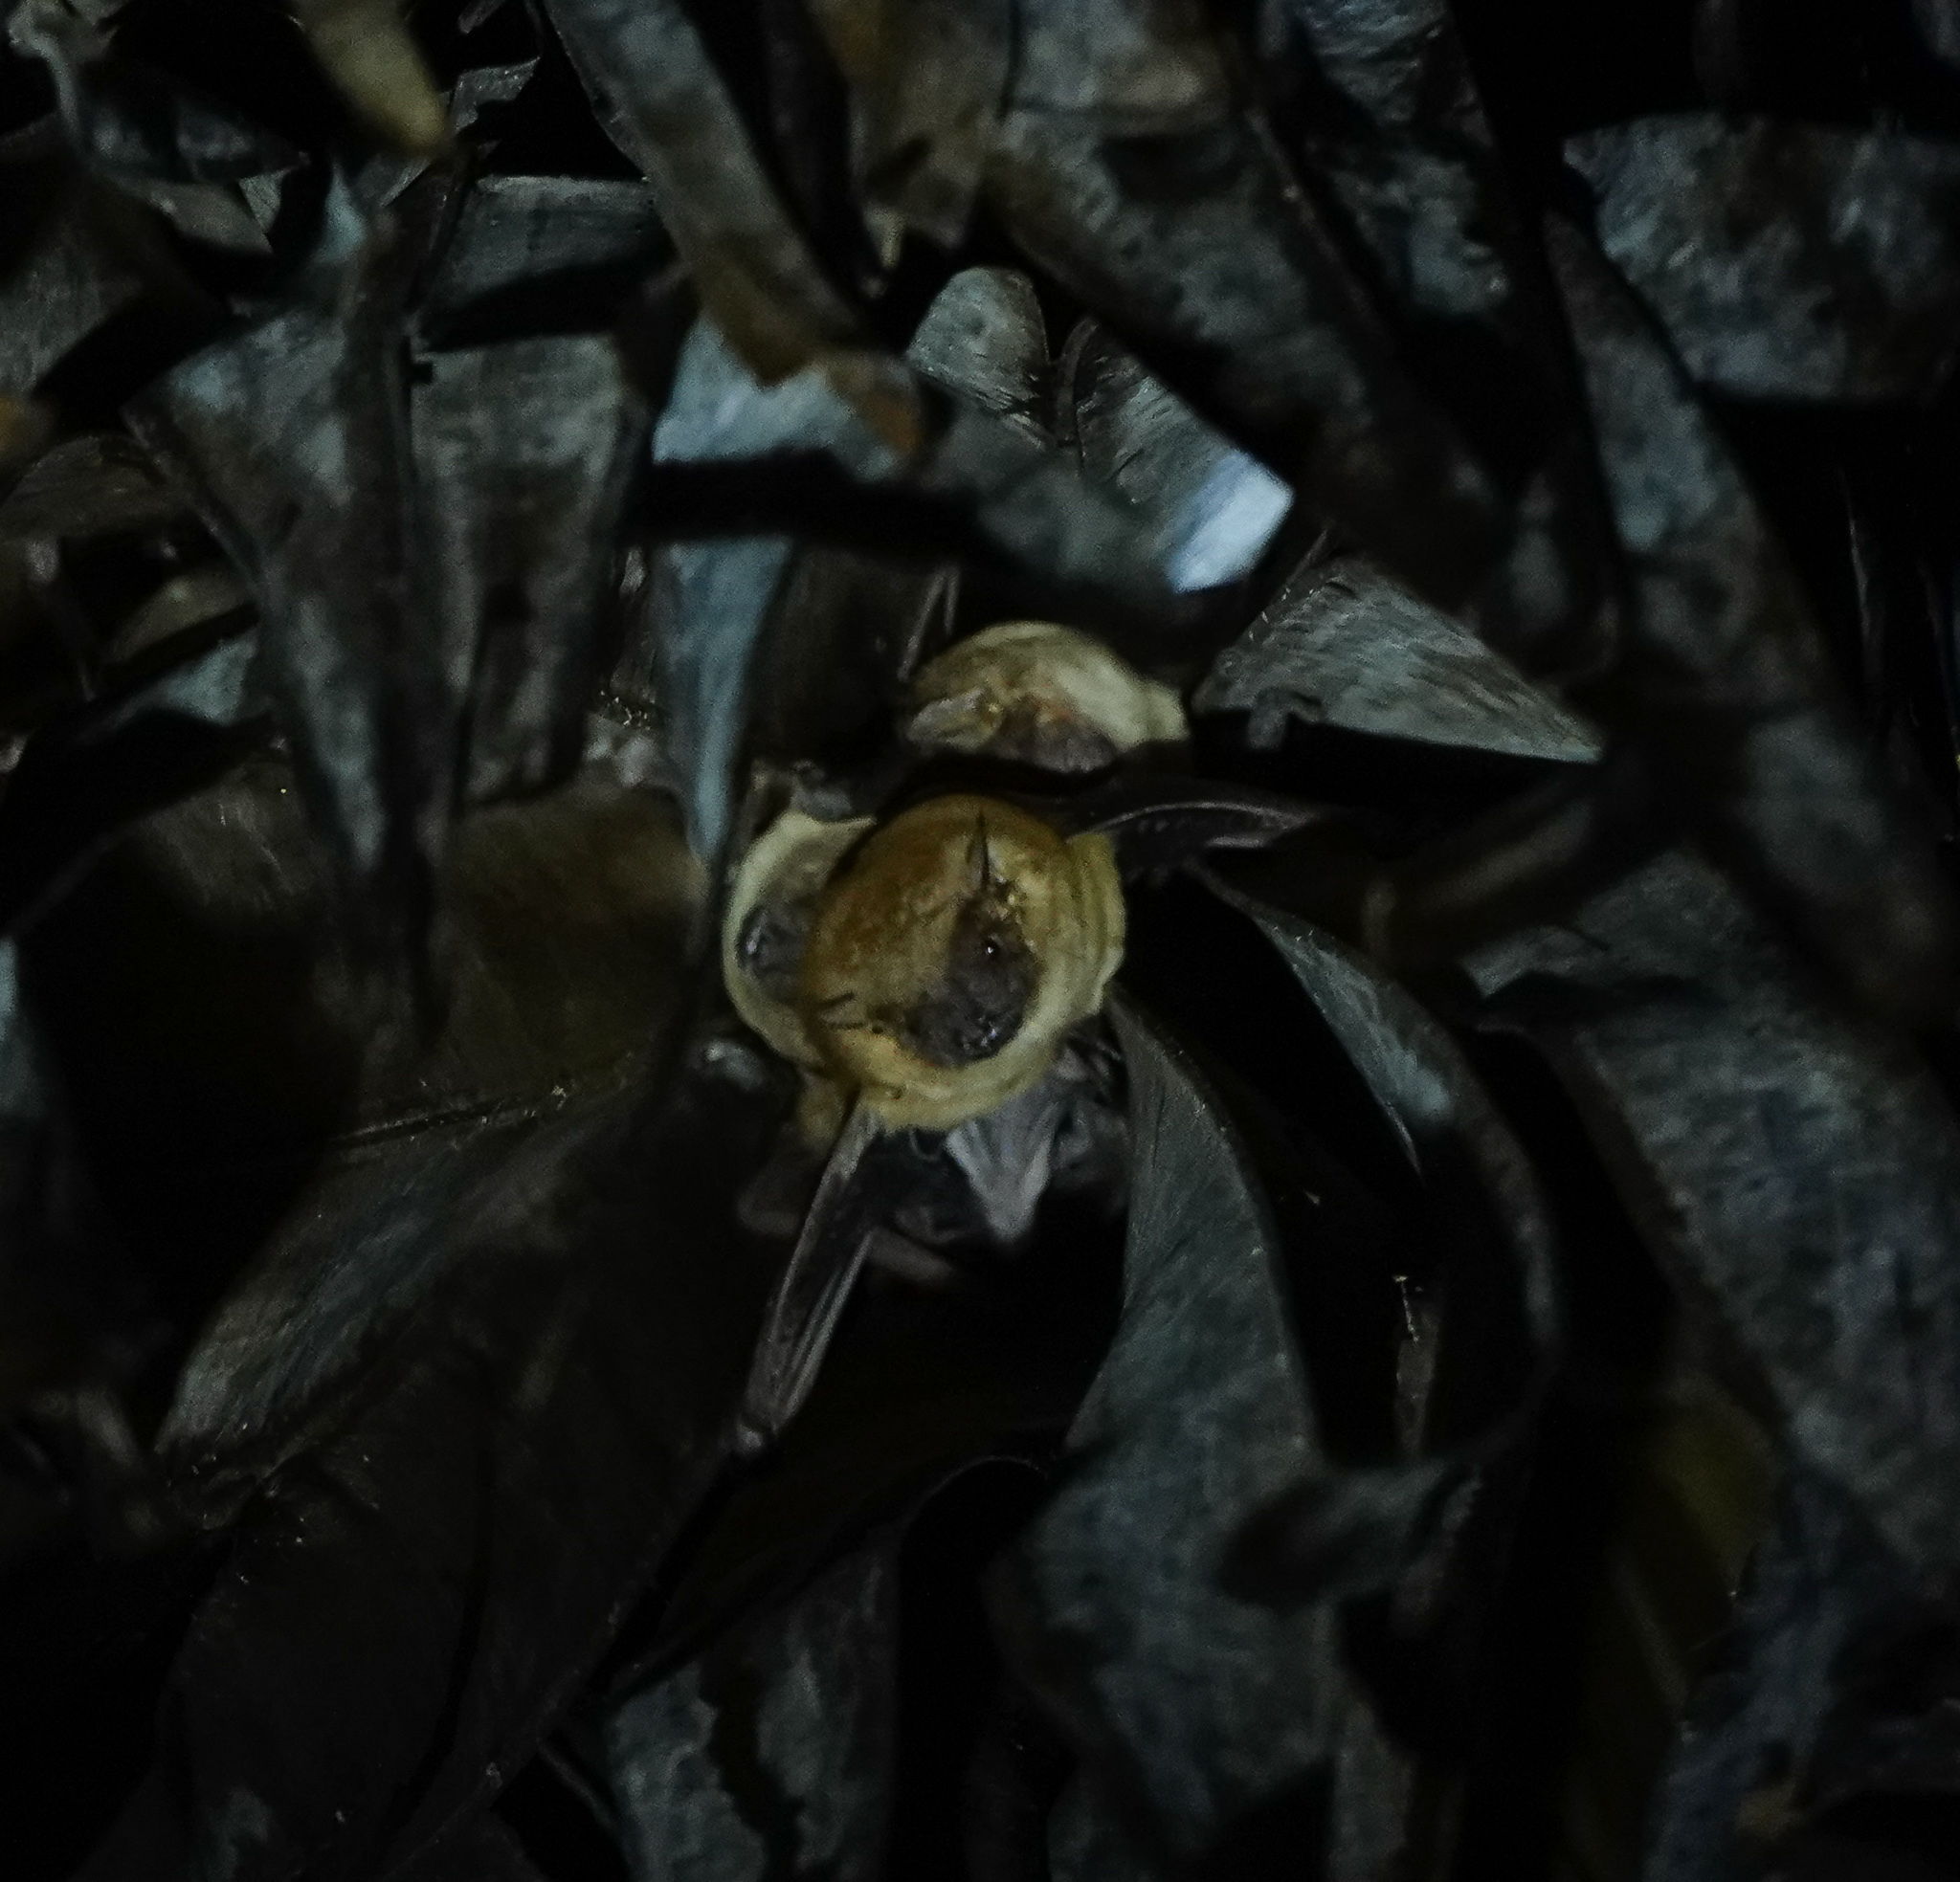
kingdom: Animalia
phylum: Chordata
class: Mammalia
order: Chiroptera
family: Vespertilionidae
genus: Scotophilus
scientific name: Scotophilus heathii
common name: Greater asiatic yellow house bat
